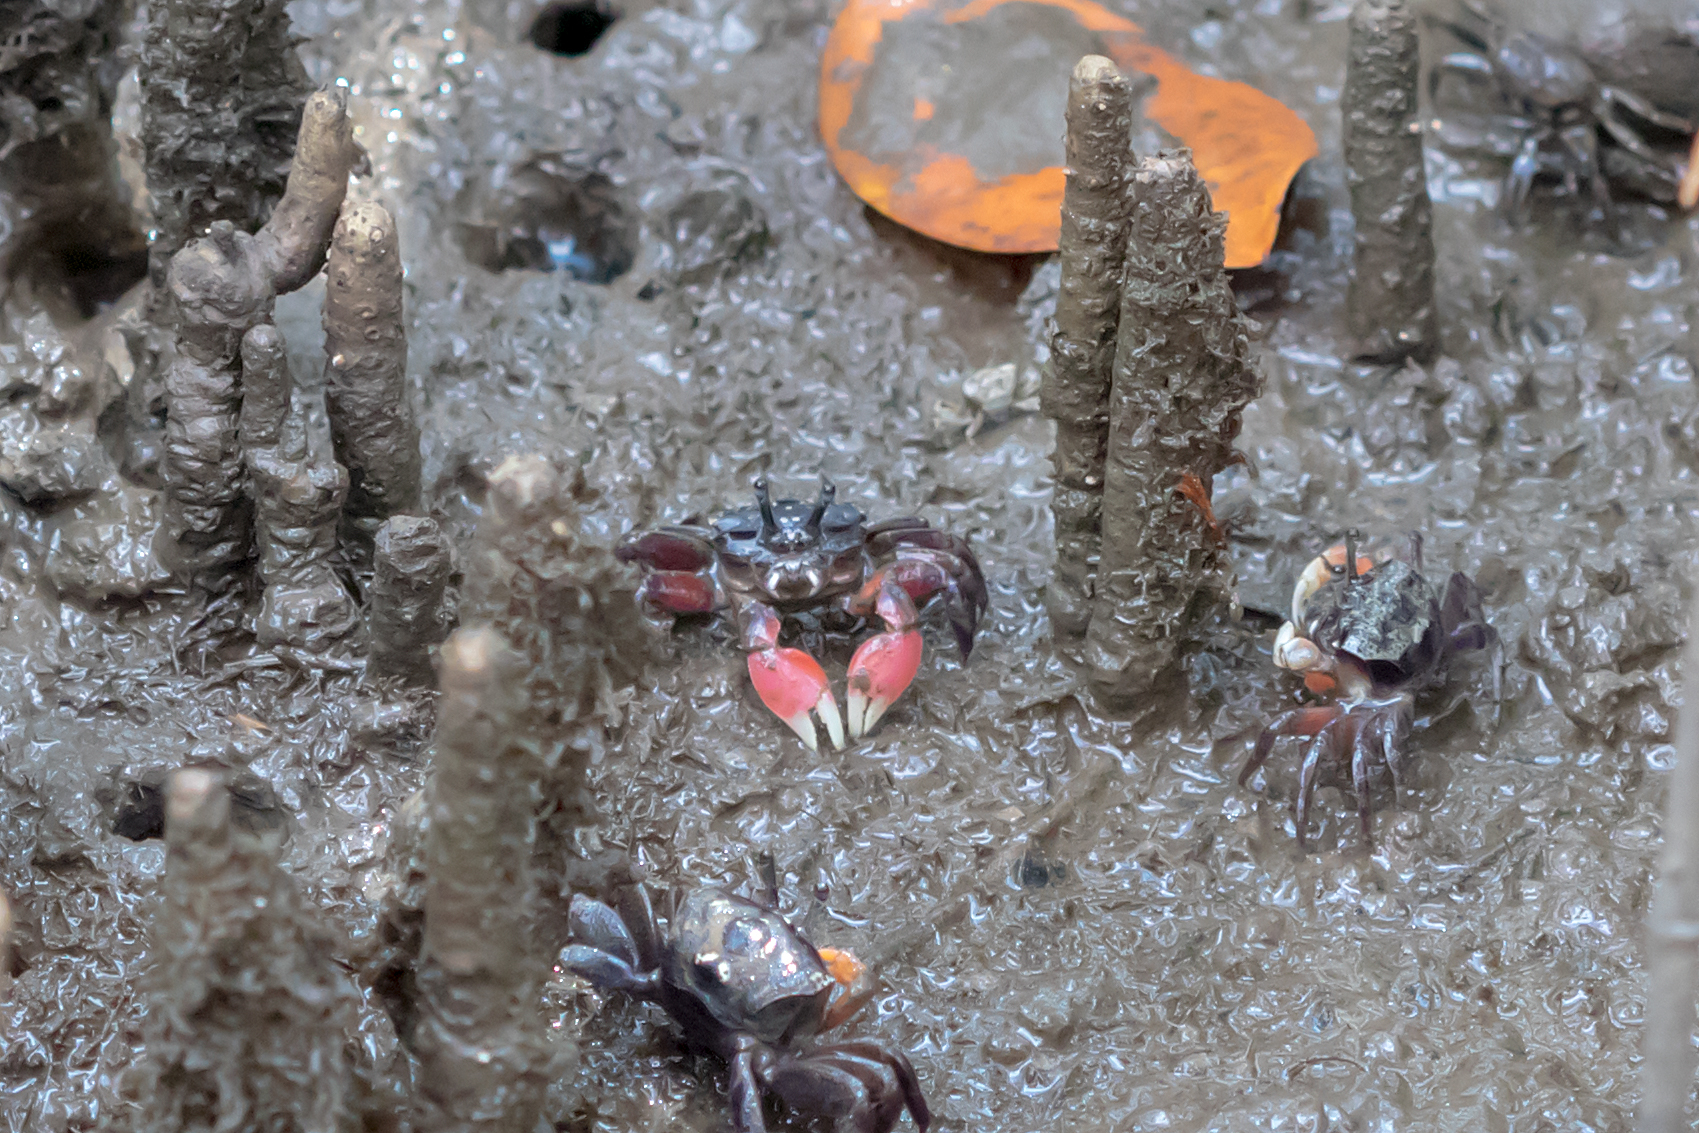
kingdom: Animalia
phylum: Arthropoda
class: Malacostraca
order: Decapoda
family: Heloeciidae
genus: Heloecius
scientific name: Heloecius cordiformis
